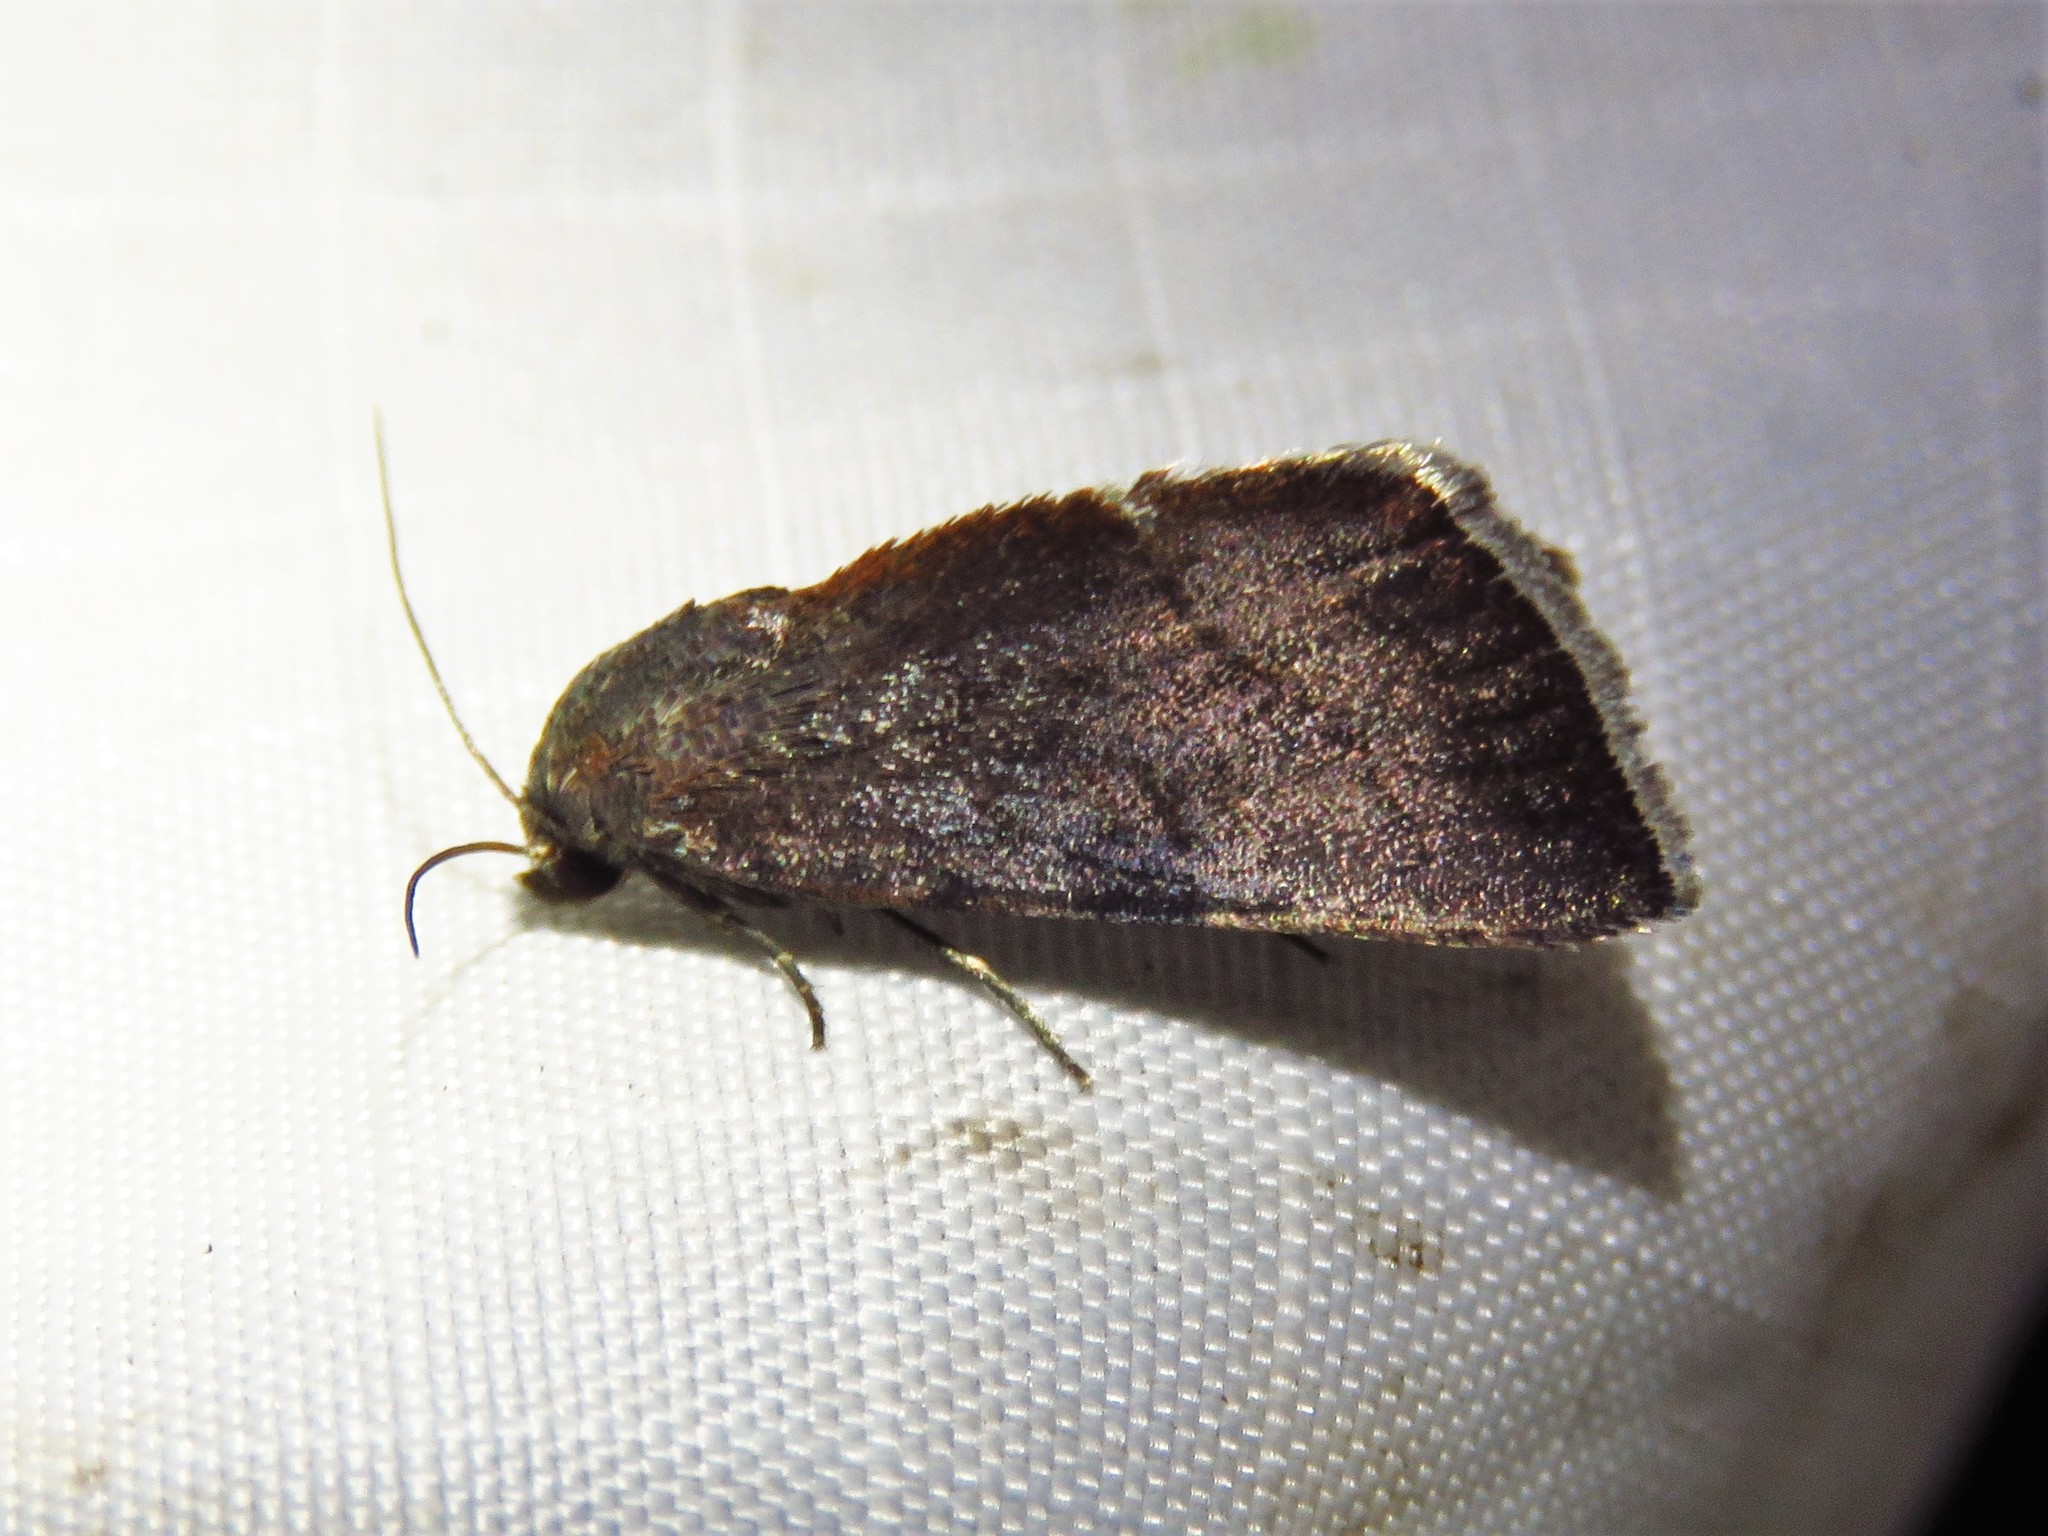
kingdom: Animalia
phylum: Arthropoda
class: Insecta
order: Lepidoptera
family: Noctuidae
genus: Galgula
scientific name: Galgula partita
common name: Wedgeling
